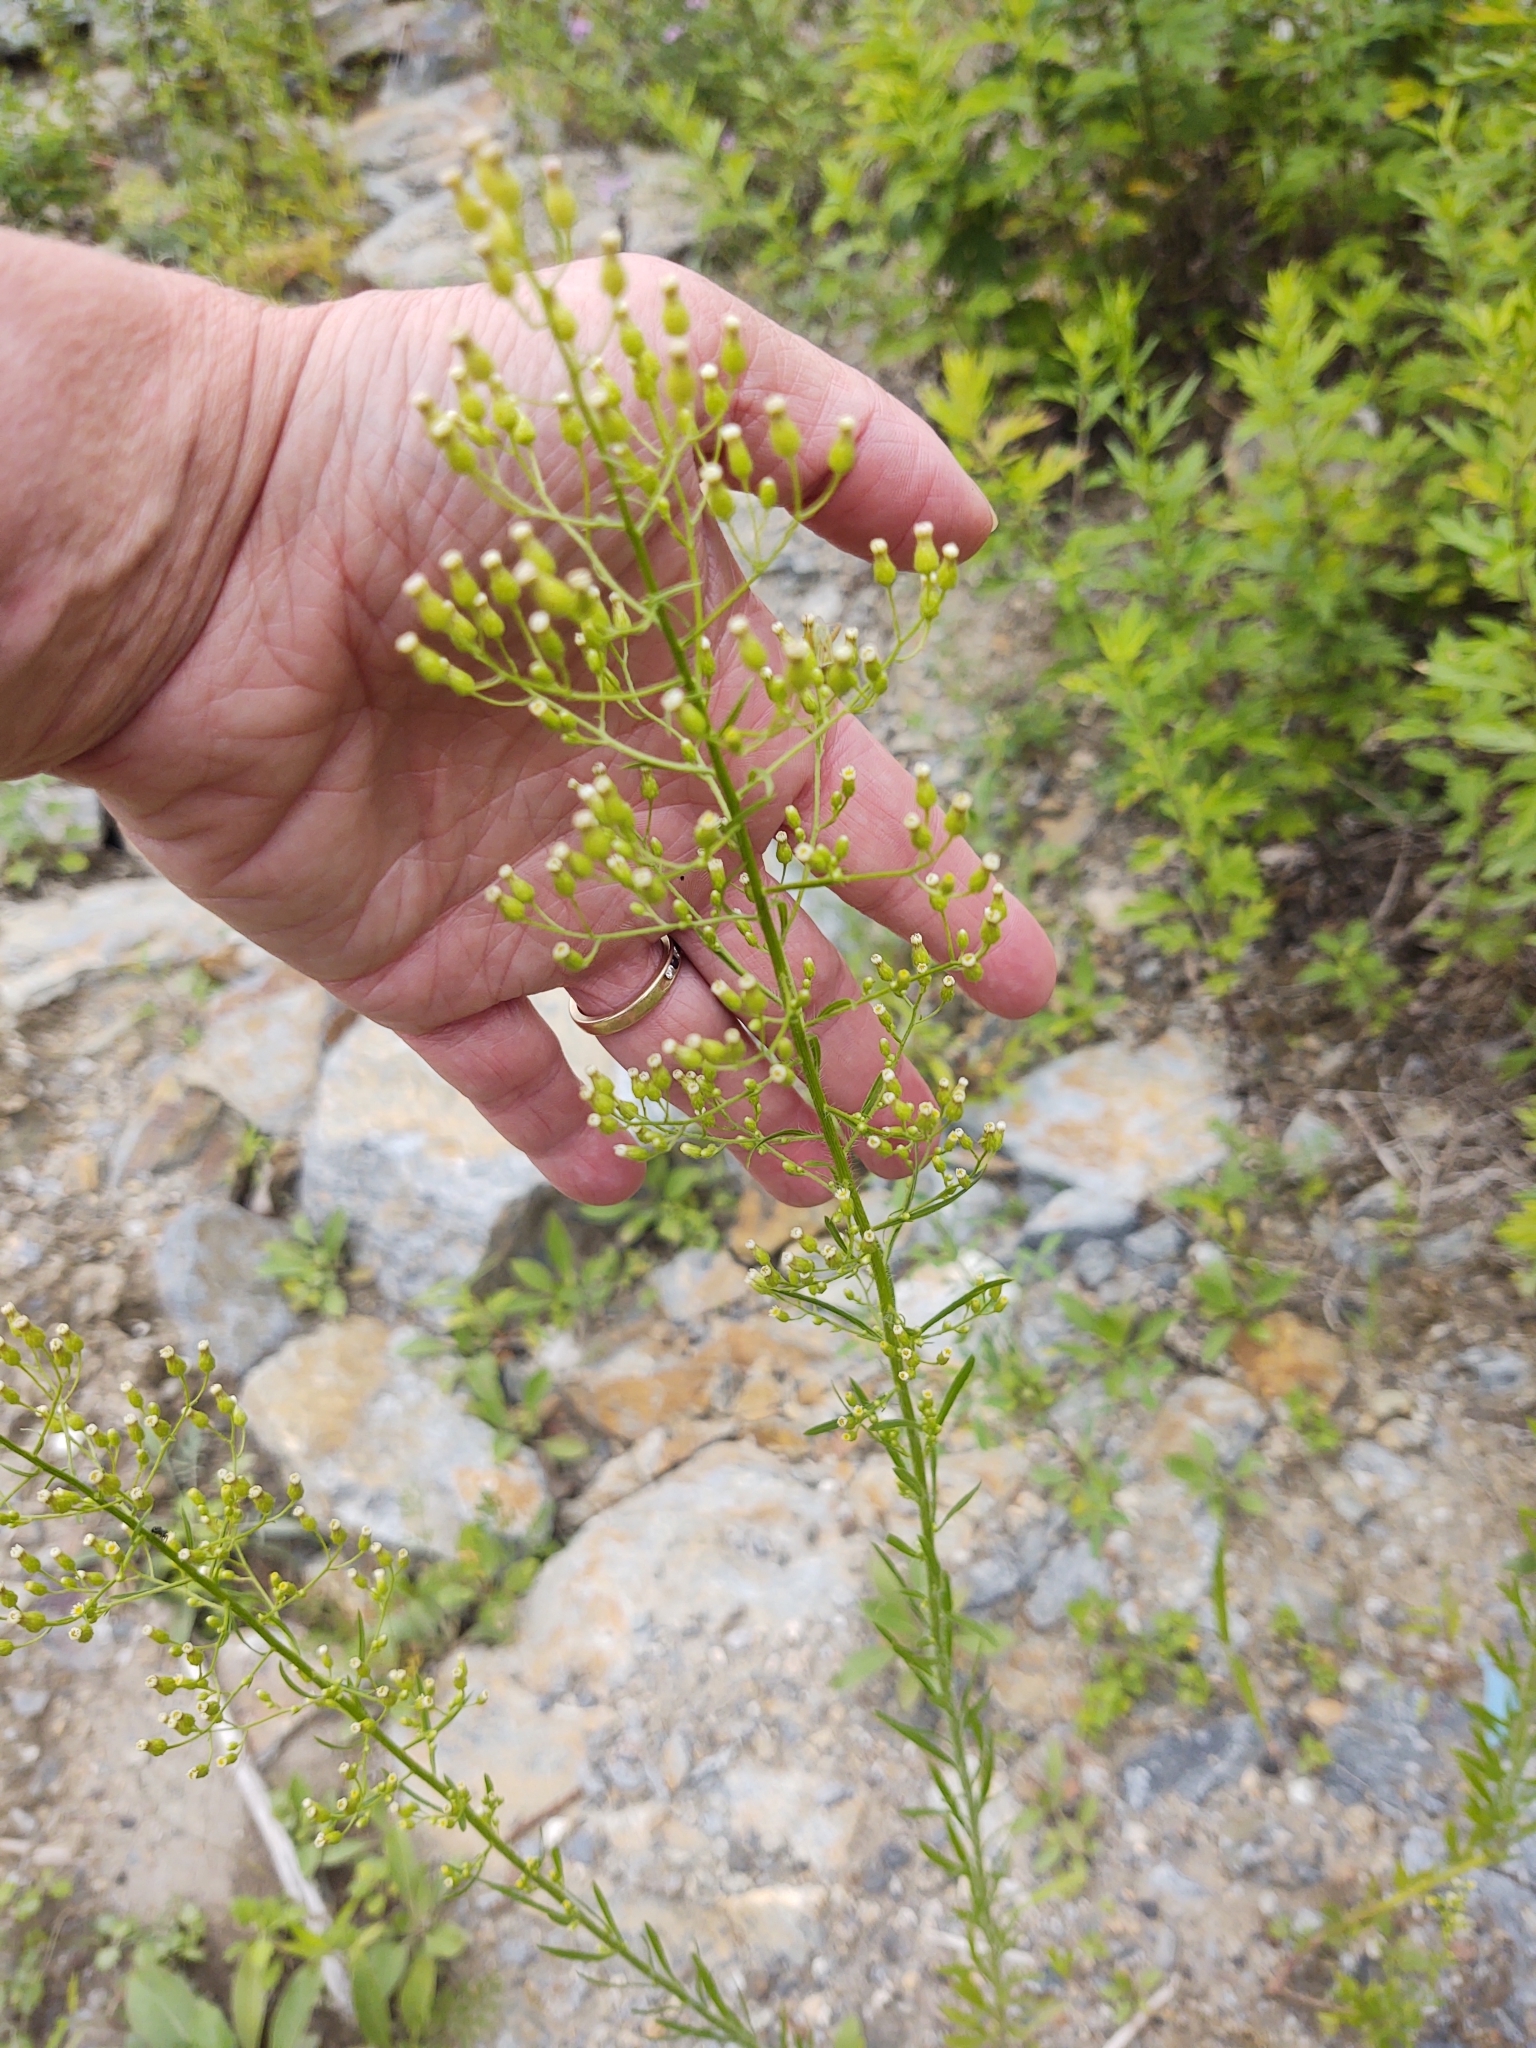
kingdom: Plantae
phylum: Tracheophyta
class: Magnoliopsida
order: Asterales
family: Asteraceae
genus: Erigeron
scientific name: Erigeron canadensis
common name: Canadian fleabane
